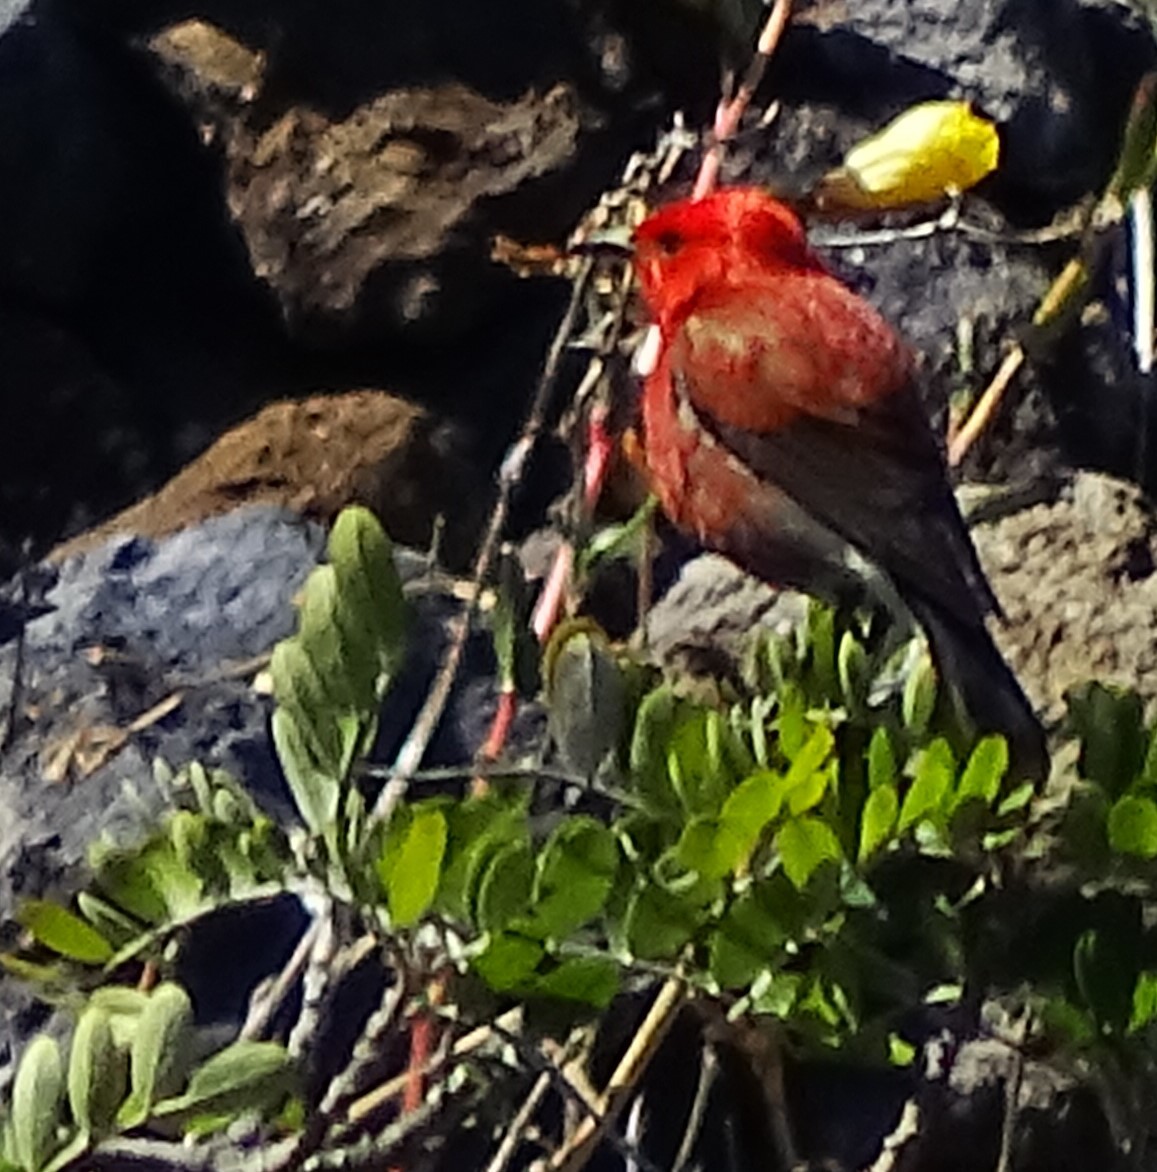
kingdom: Animalia
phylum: Chordata
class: Aves
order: Passeriformes
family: Fringillidae
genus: Himatione
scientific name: Himatione sanguinea
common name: Apapane
